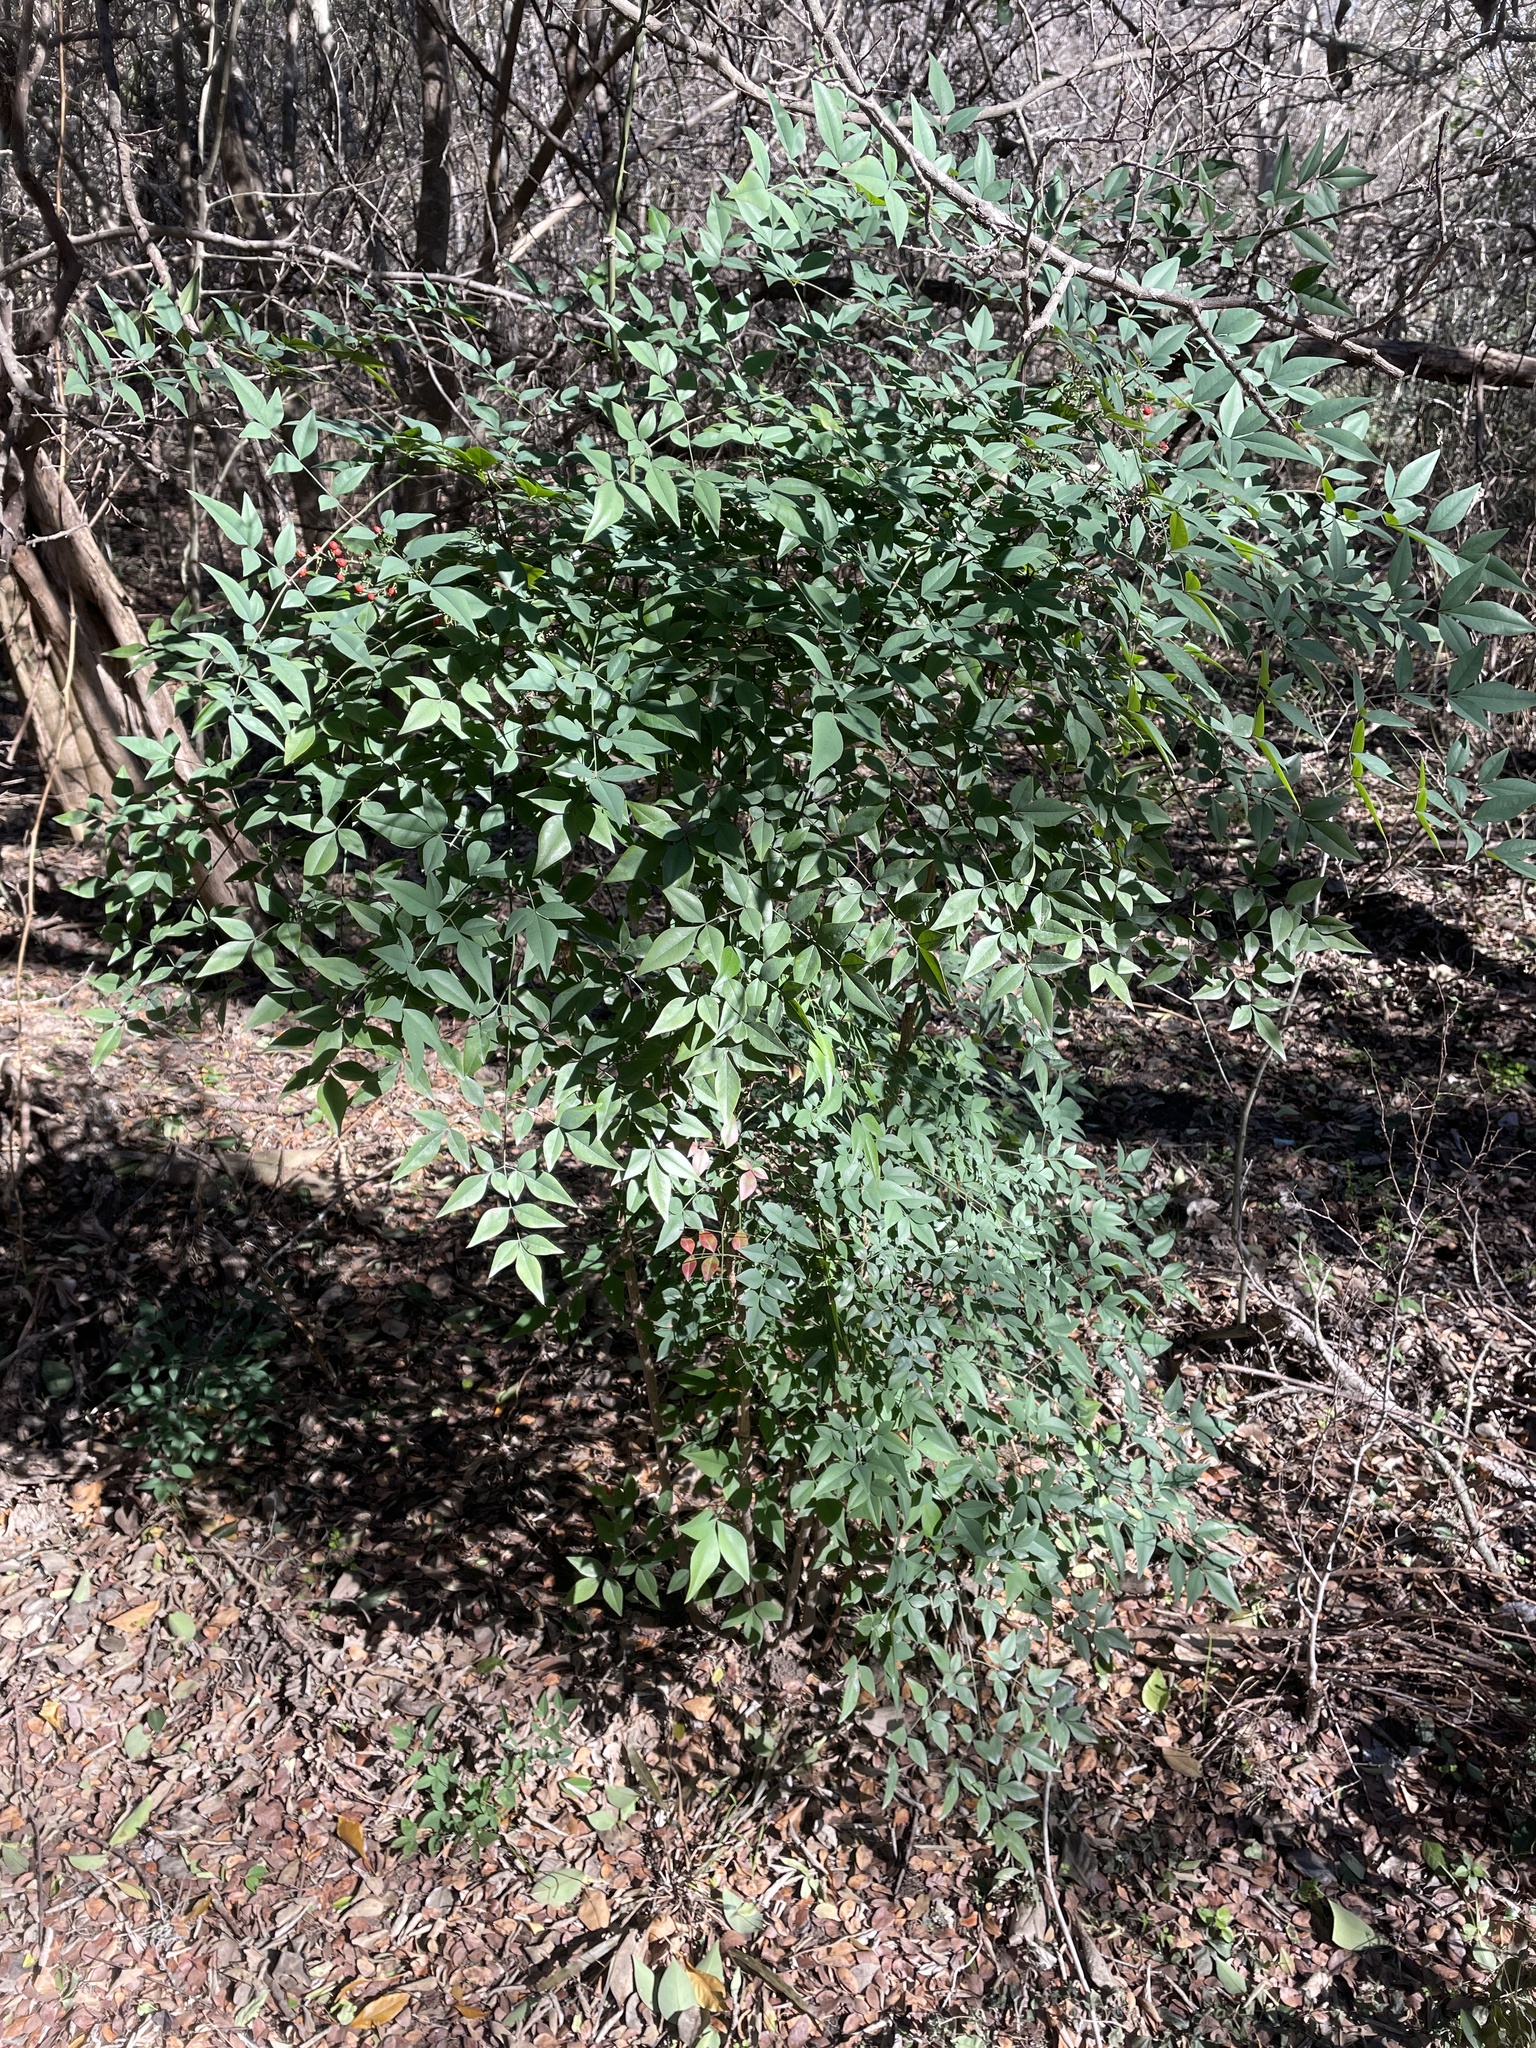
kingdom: Plantae
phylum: Tracheophyta
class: Magnoliopsida
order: Ranunculales
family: Berberidaceae
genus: Nandina
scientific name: Nandina domestica
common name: Sacred bamboo
